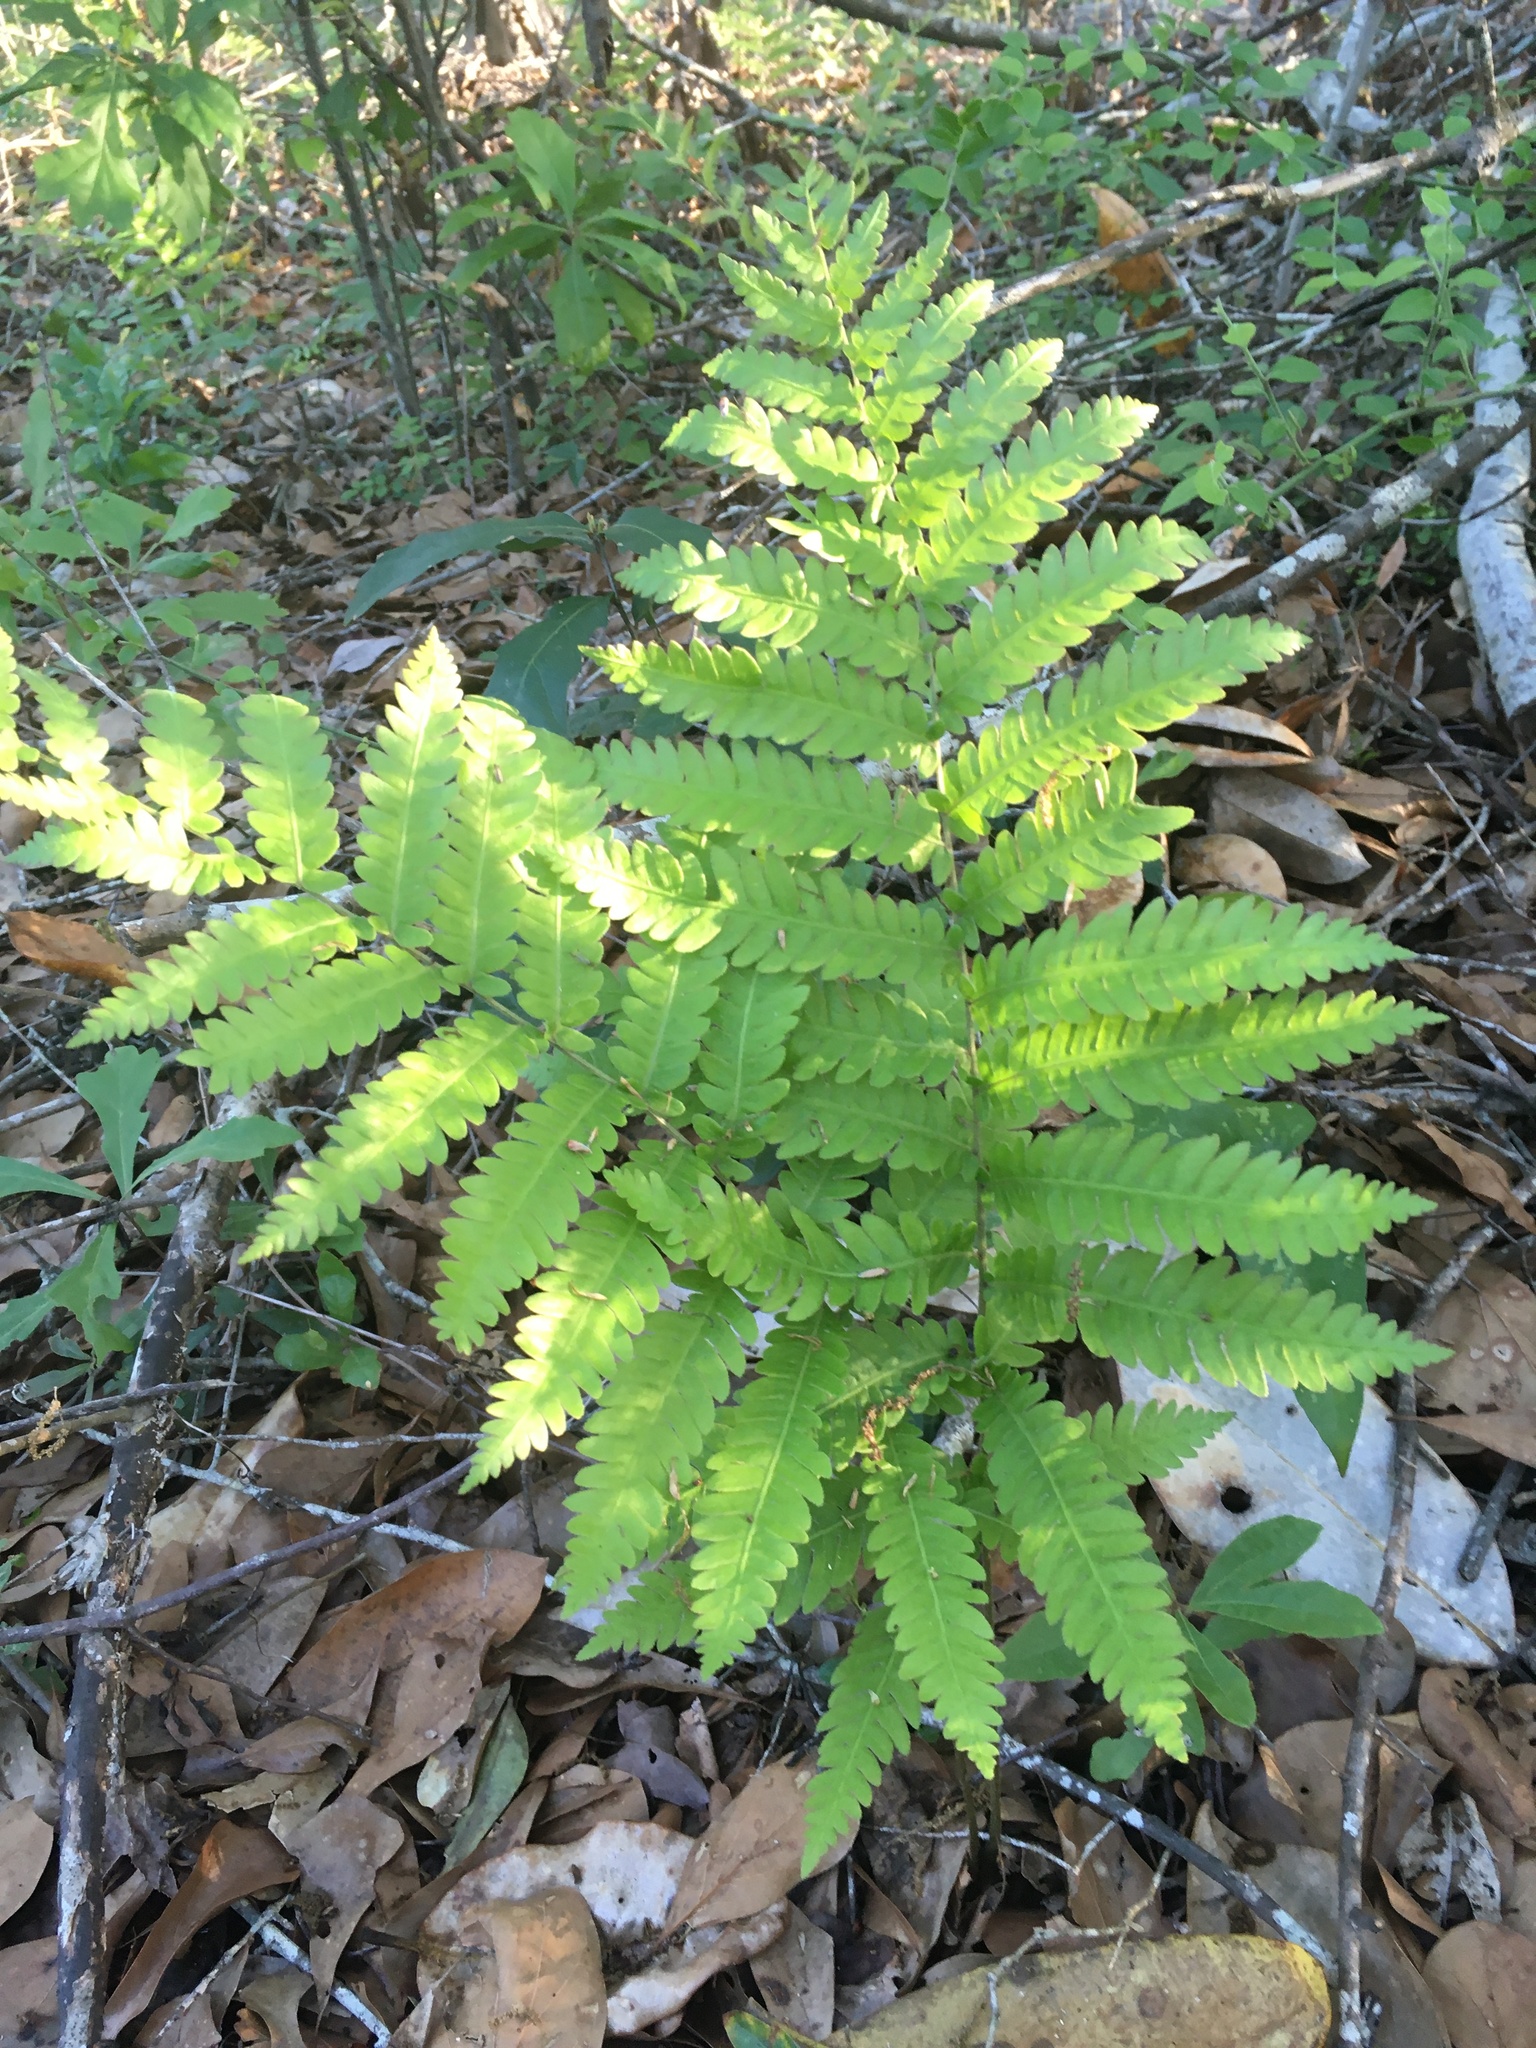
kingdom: Plantae
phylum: Tracheophyta
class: Polypodiopsida
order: Polypodiales
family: Blechnaceae
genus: Anchistea
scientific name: Anchistea virginica
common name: Virginia chain fern
